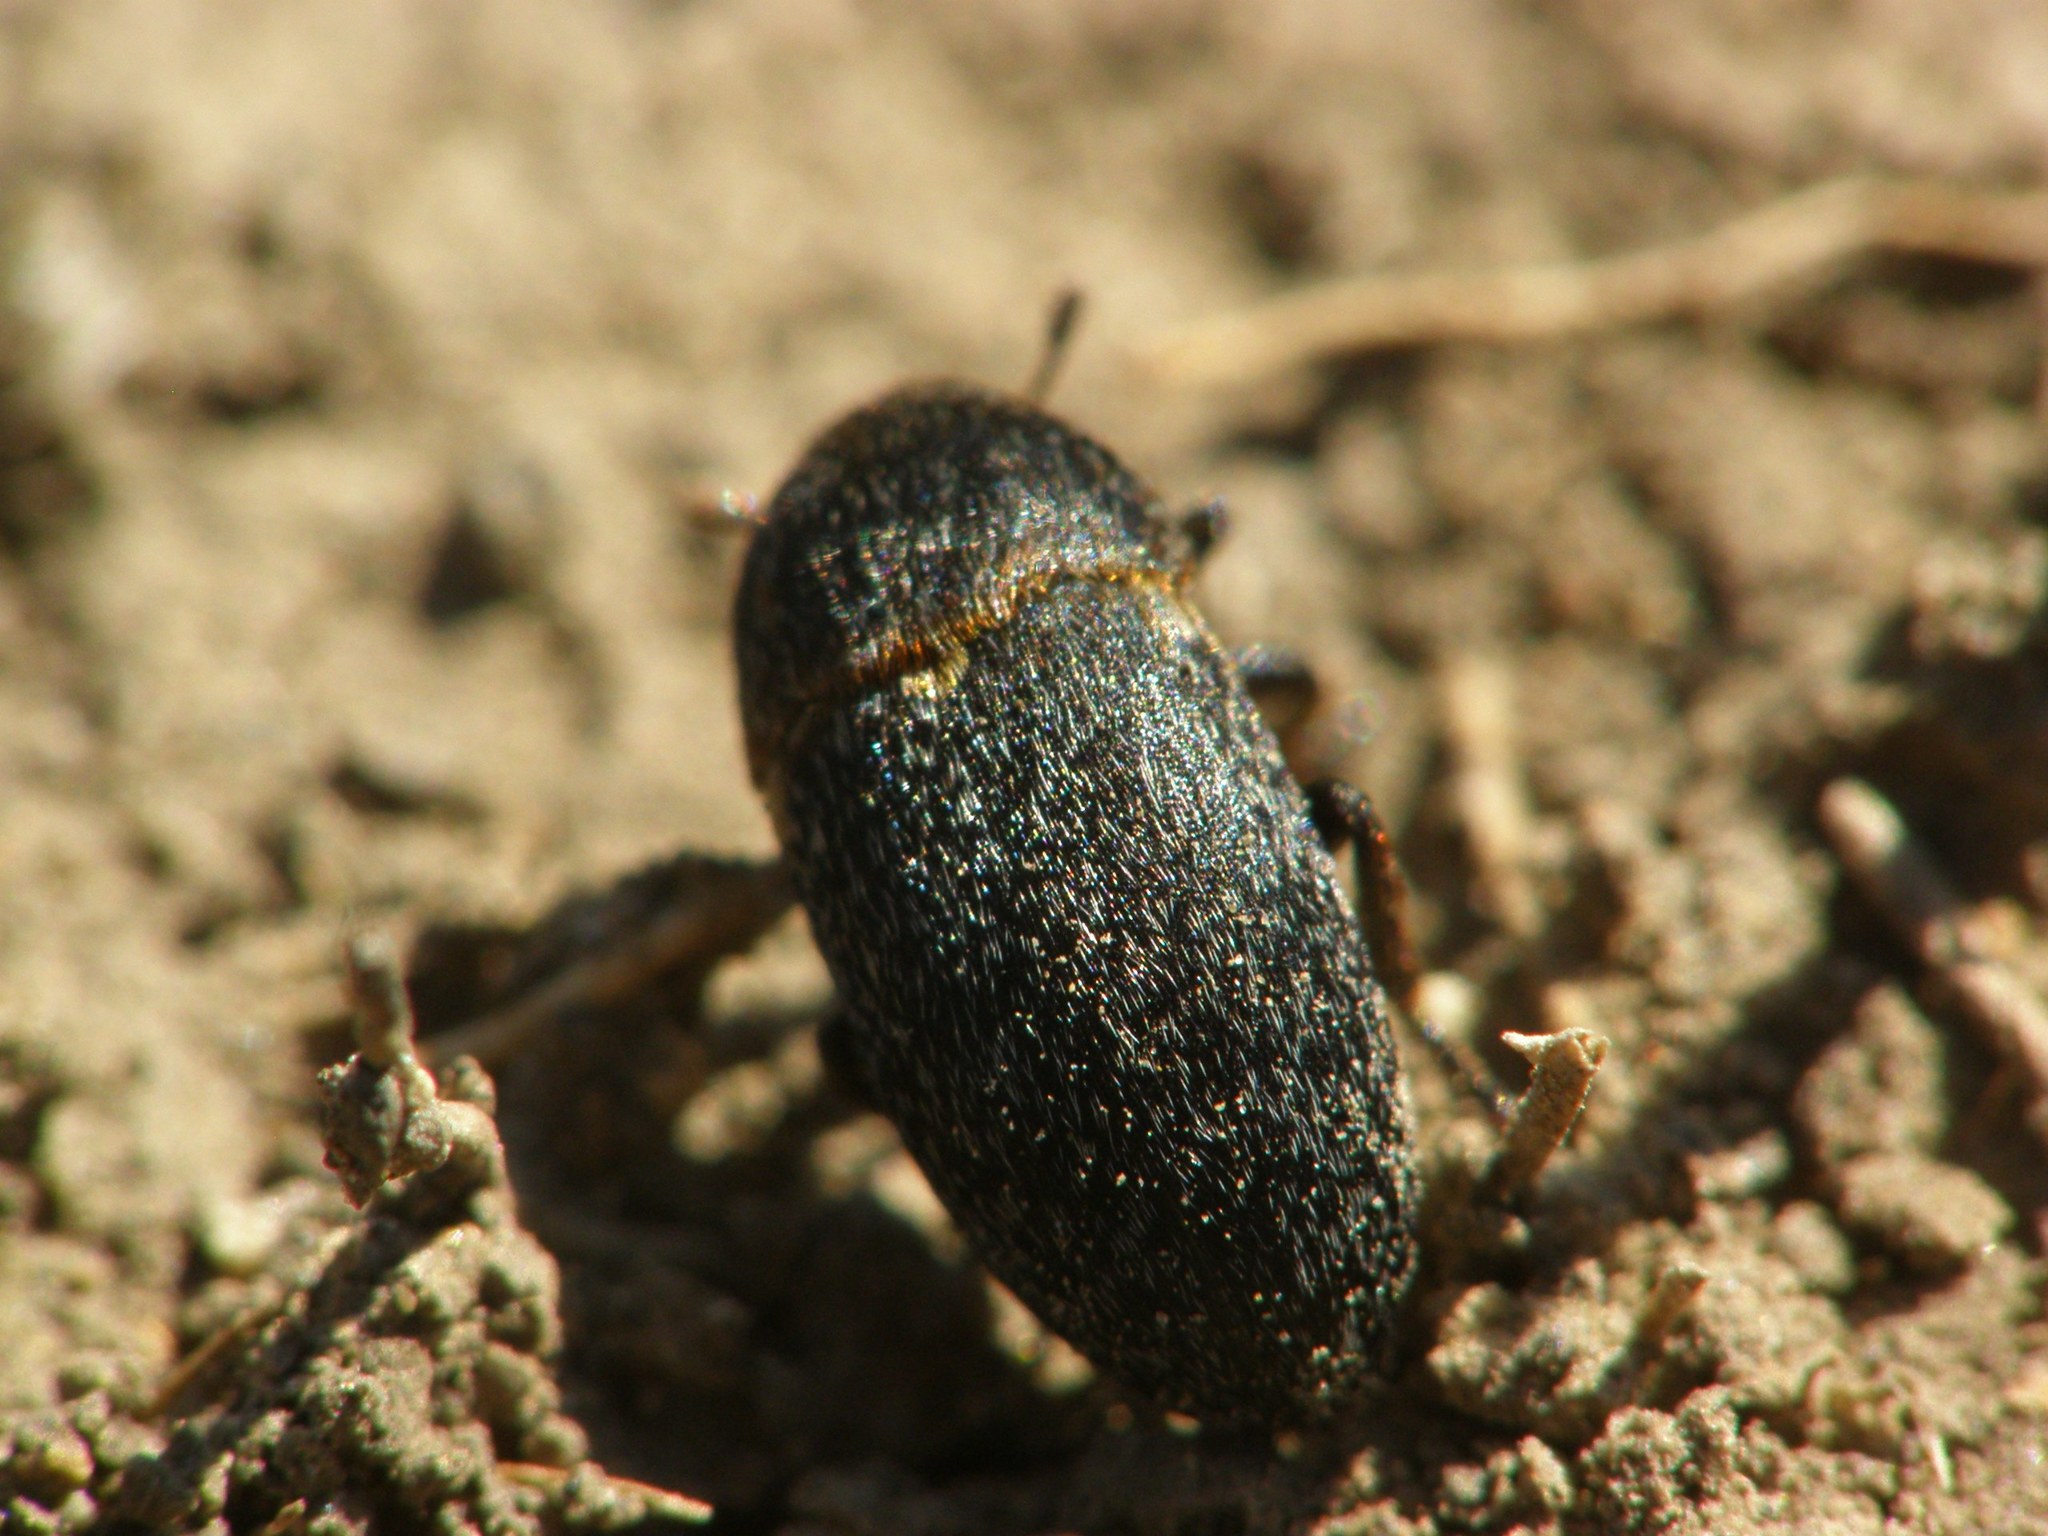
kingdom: Animalia
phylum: Arthropoda
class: Insecta
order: Coleoptera
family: Dermestidae
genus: Dermestes
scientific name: Dermestes laniarius
